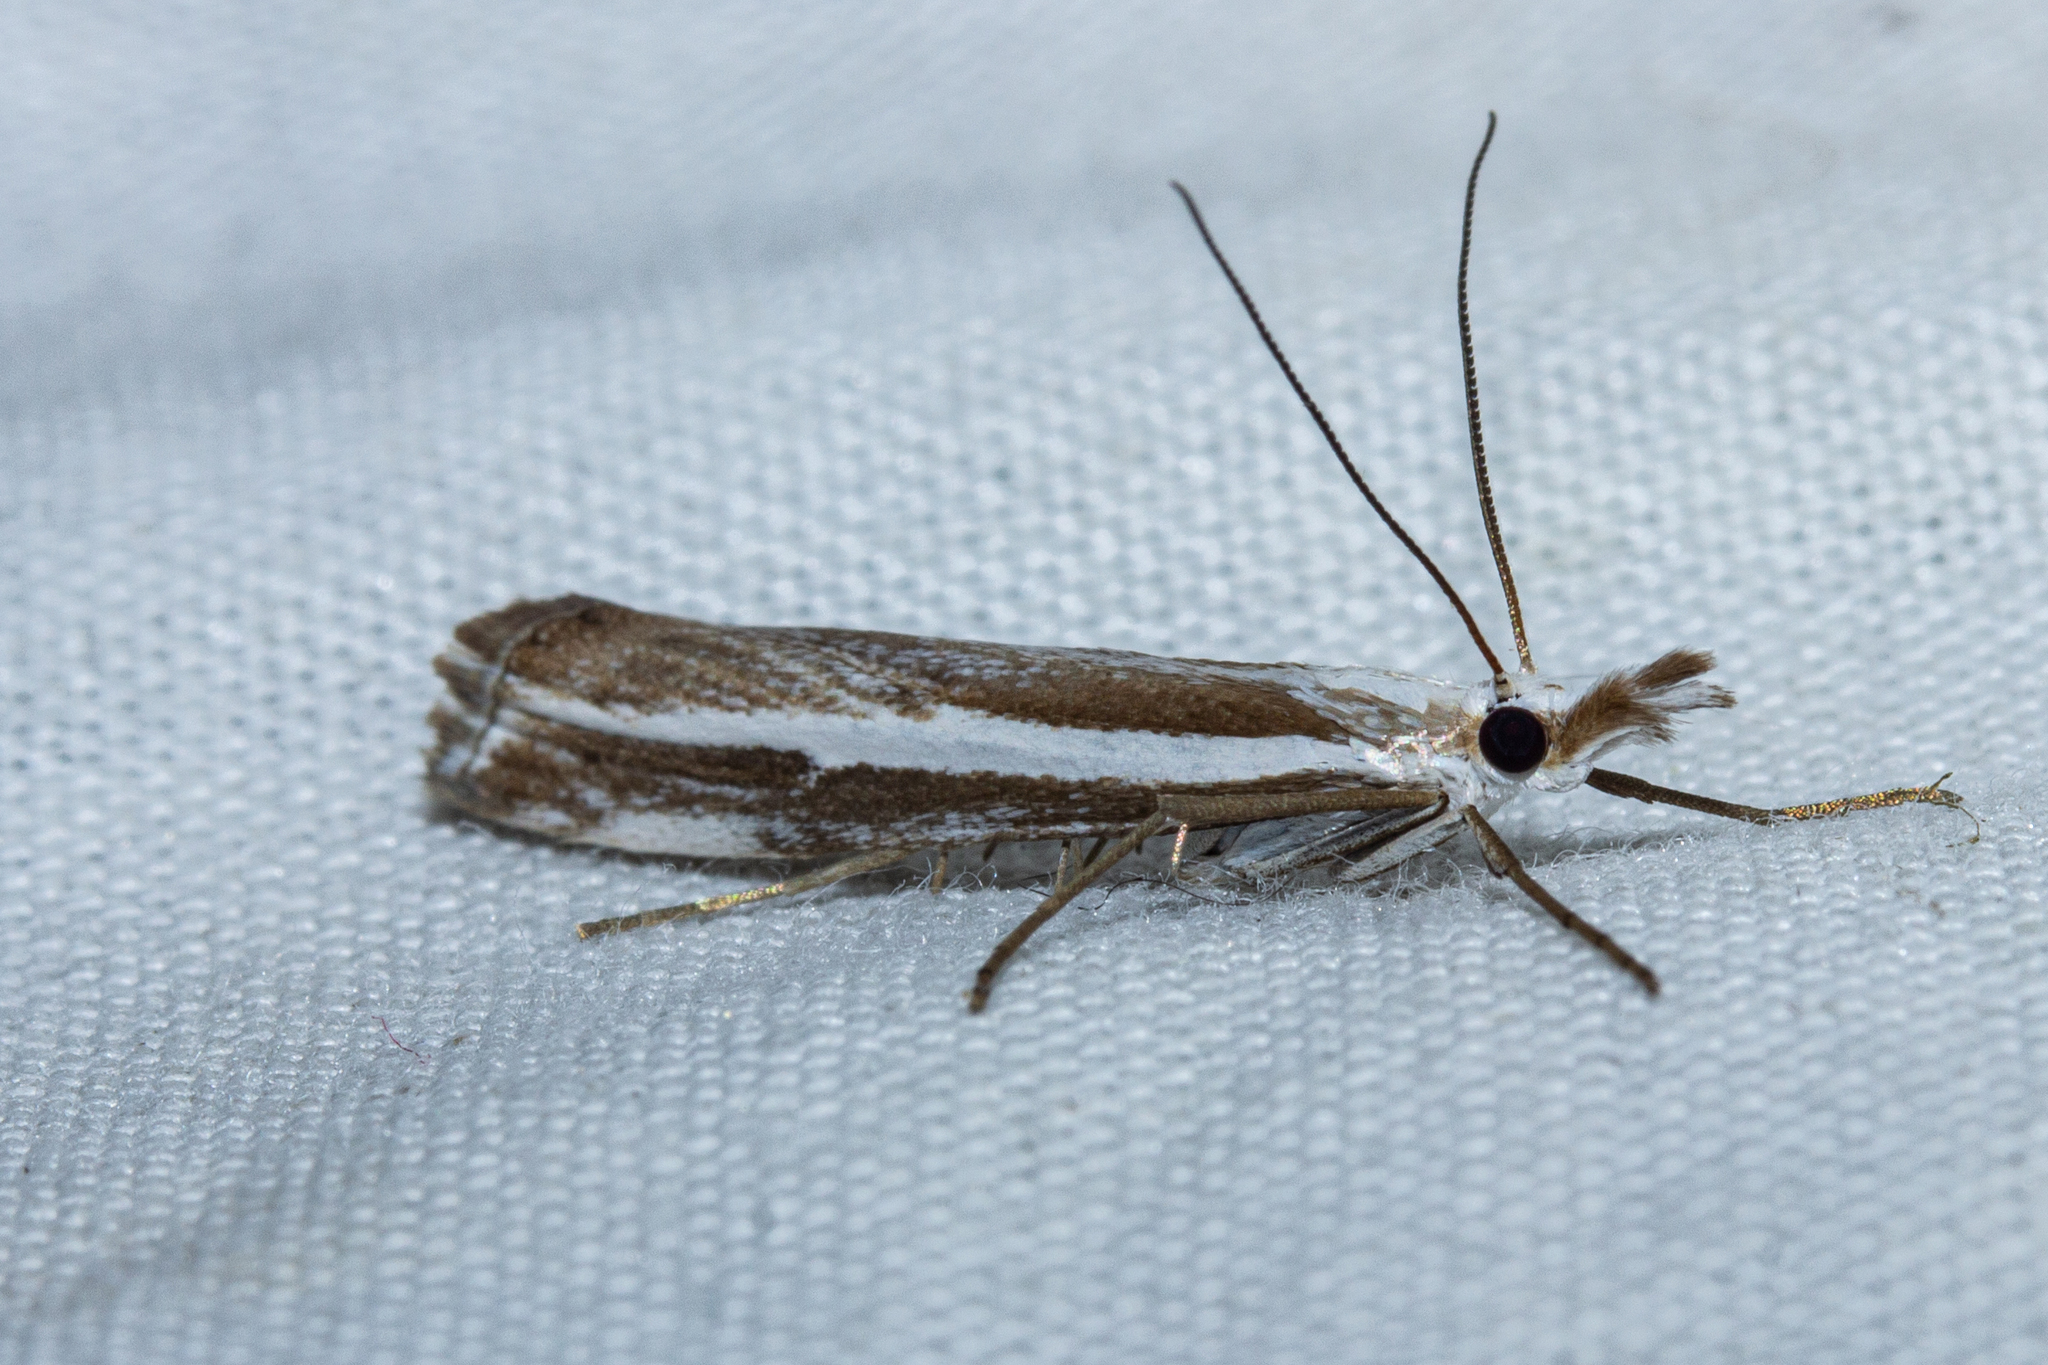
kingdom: Animalia
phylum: Arthropoda
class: Insecta
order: Lepidoptera
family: Crambidae
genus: Orocrambus
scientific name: Orocrambus vittellus
